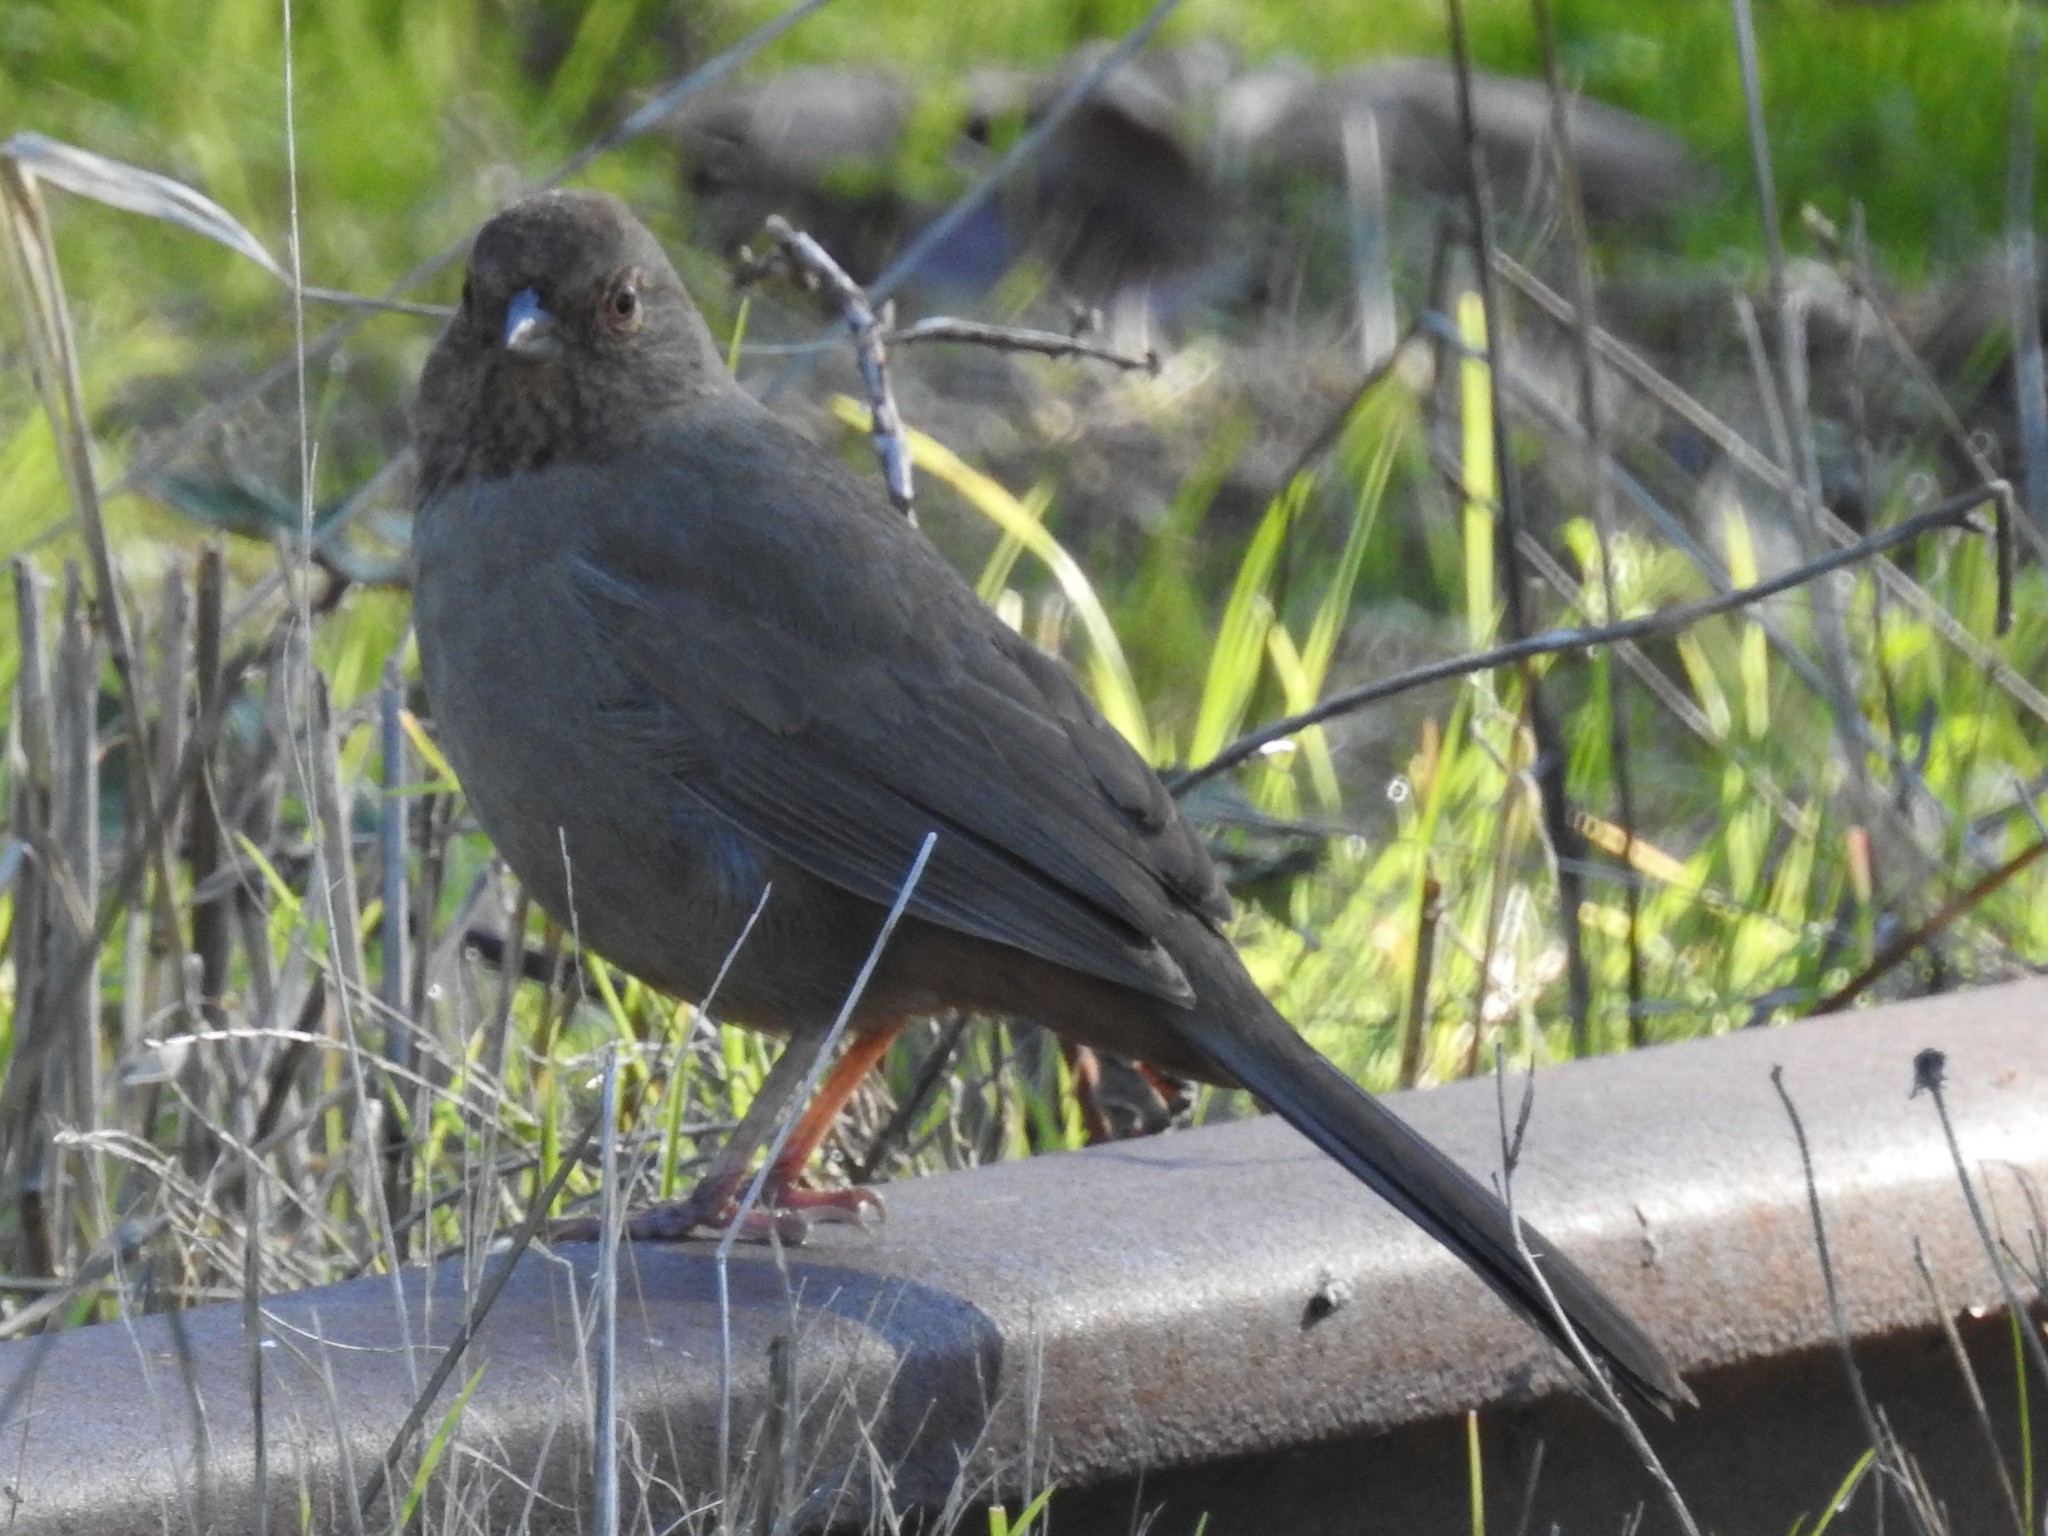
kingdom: Animalia
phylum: Chordata
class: Aves
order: Passeriformes
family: Passerellidae
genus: Melozone
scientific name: Melozone crissalis
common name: California towhee
